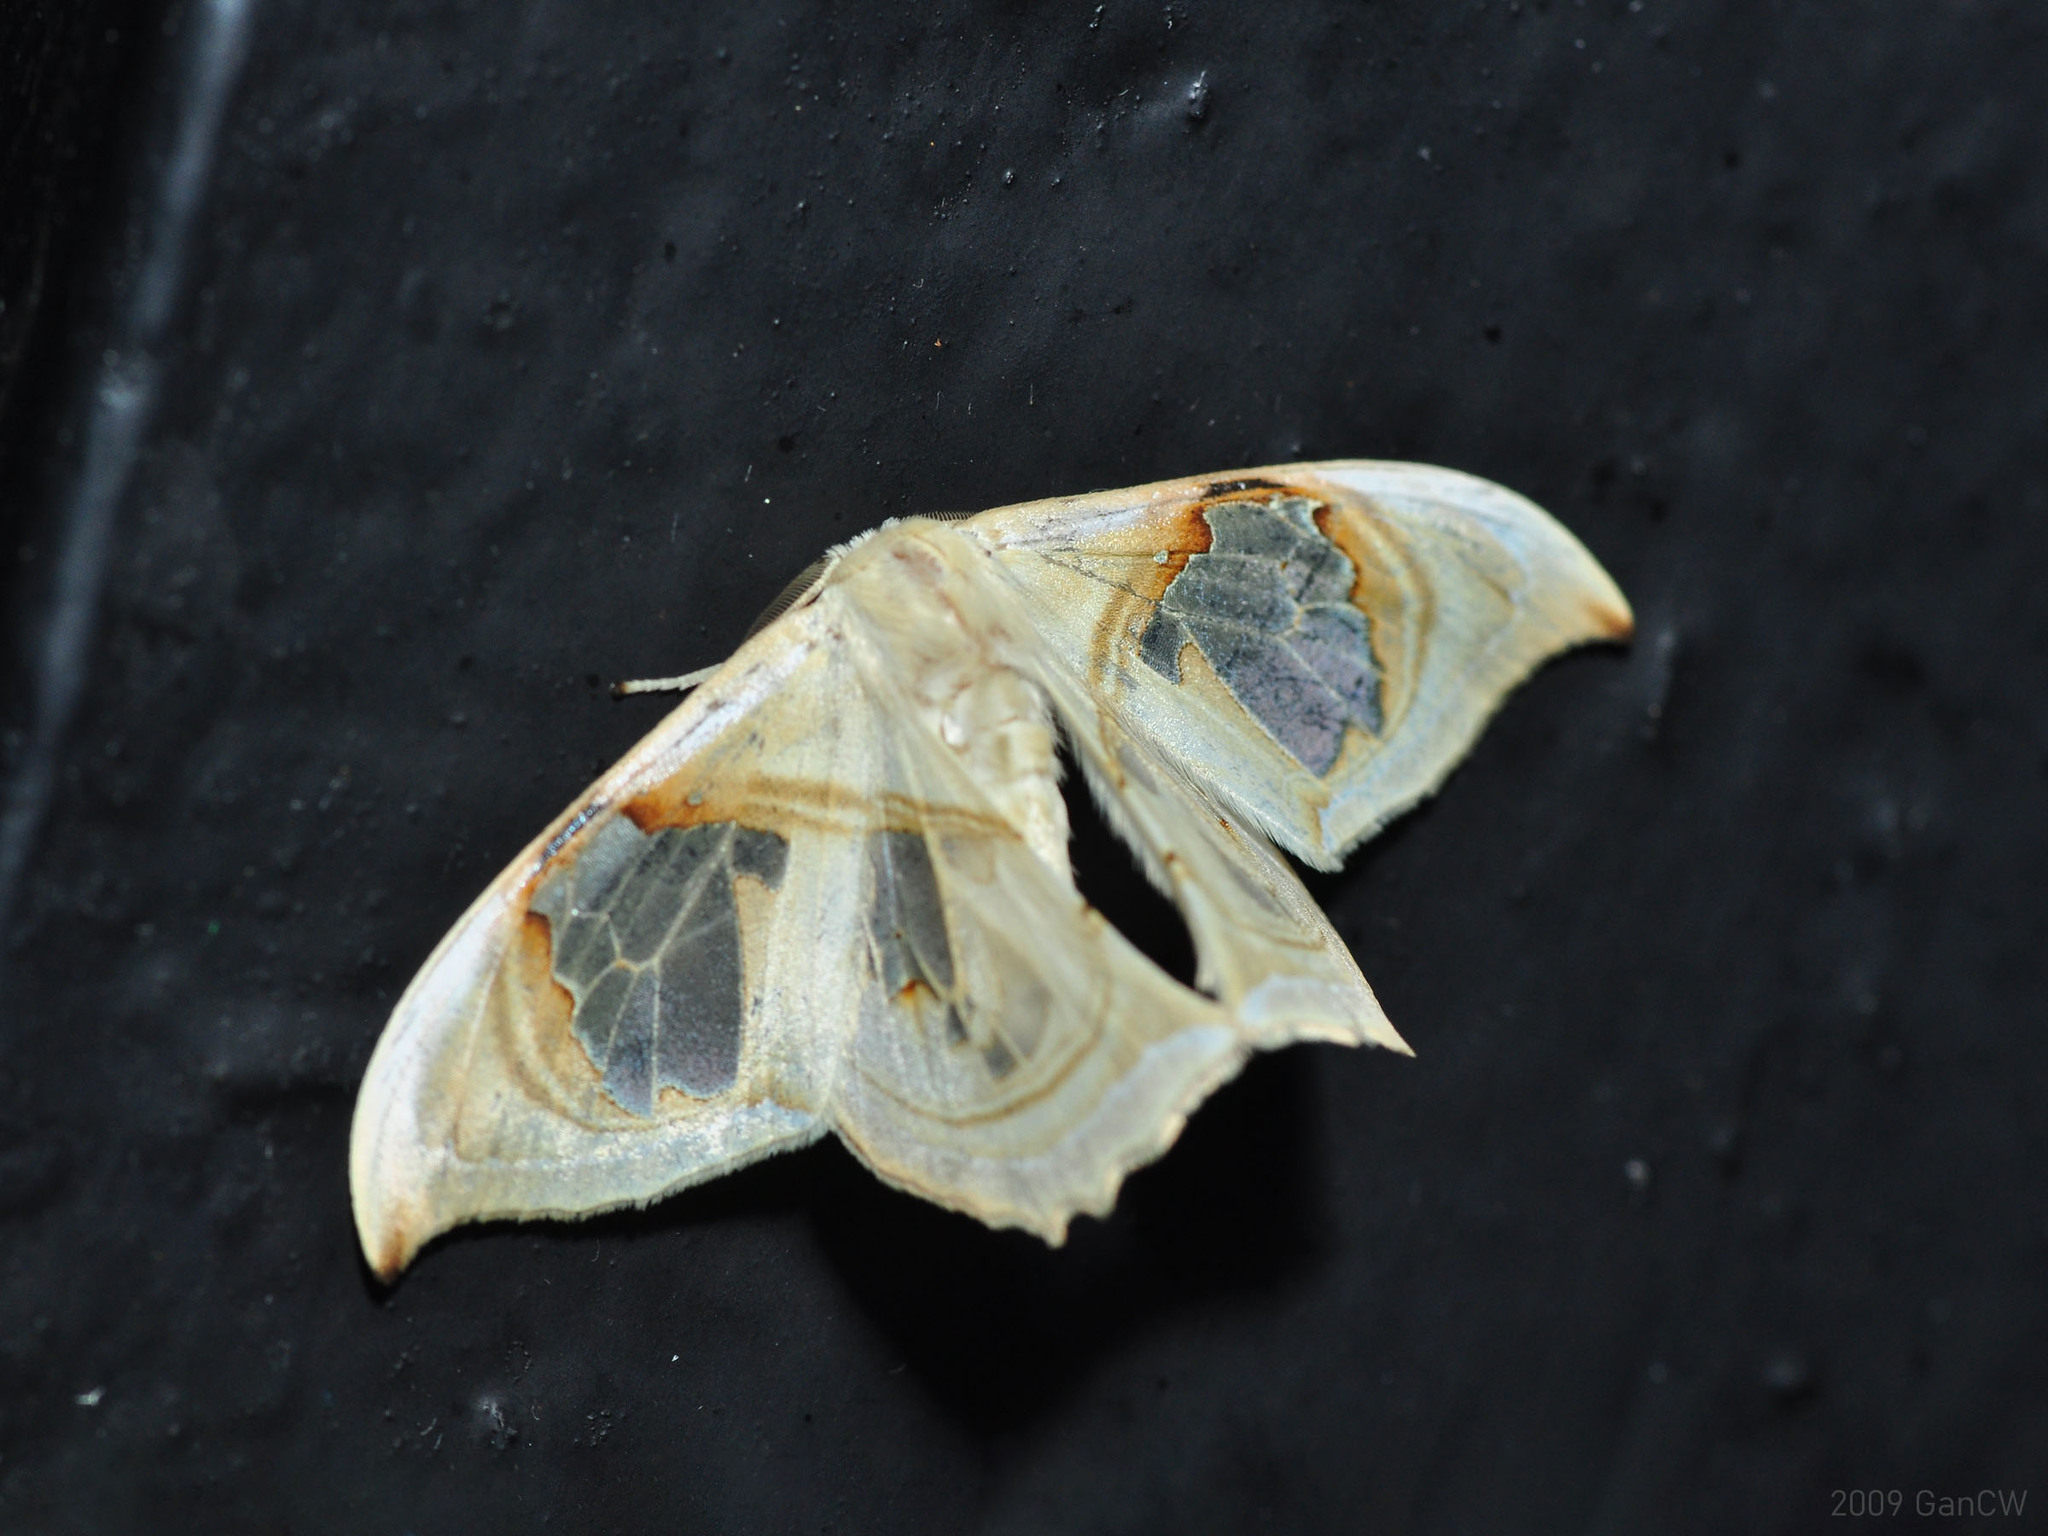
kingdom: Animalia
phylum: Arthropoda
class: Insecta
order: Lepidoptera
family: Drepanidae
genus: Macrauzata
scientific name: Macrauzata melanapex
